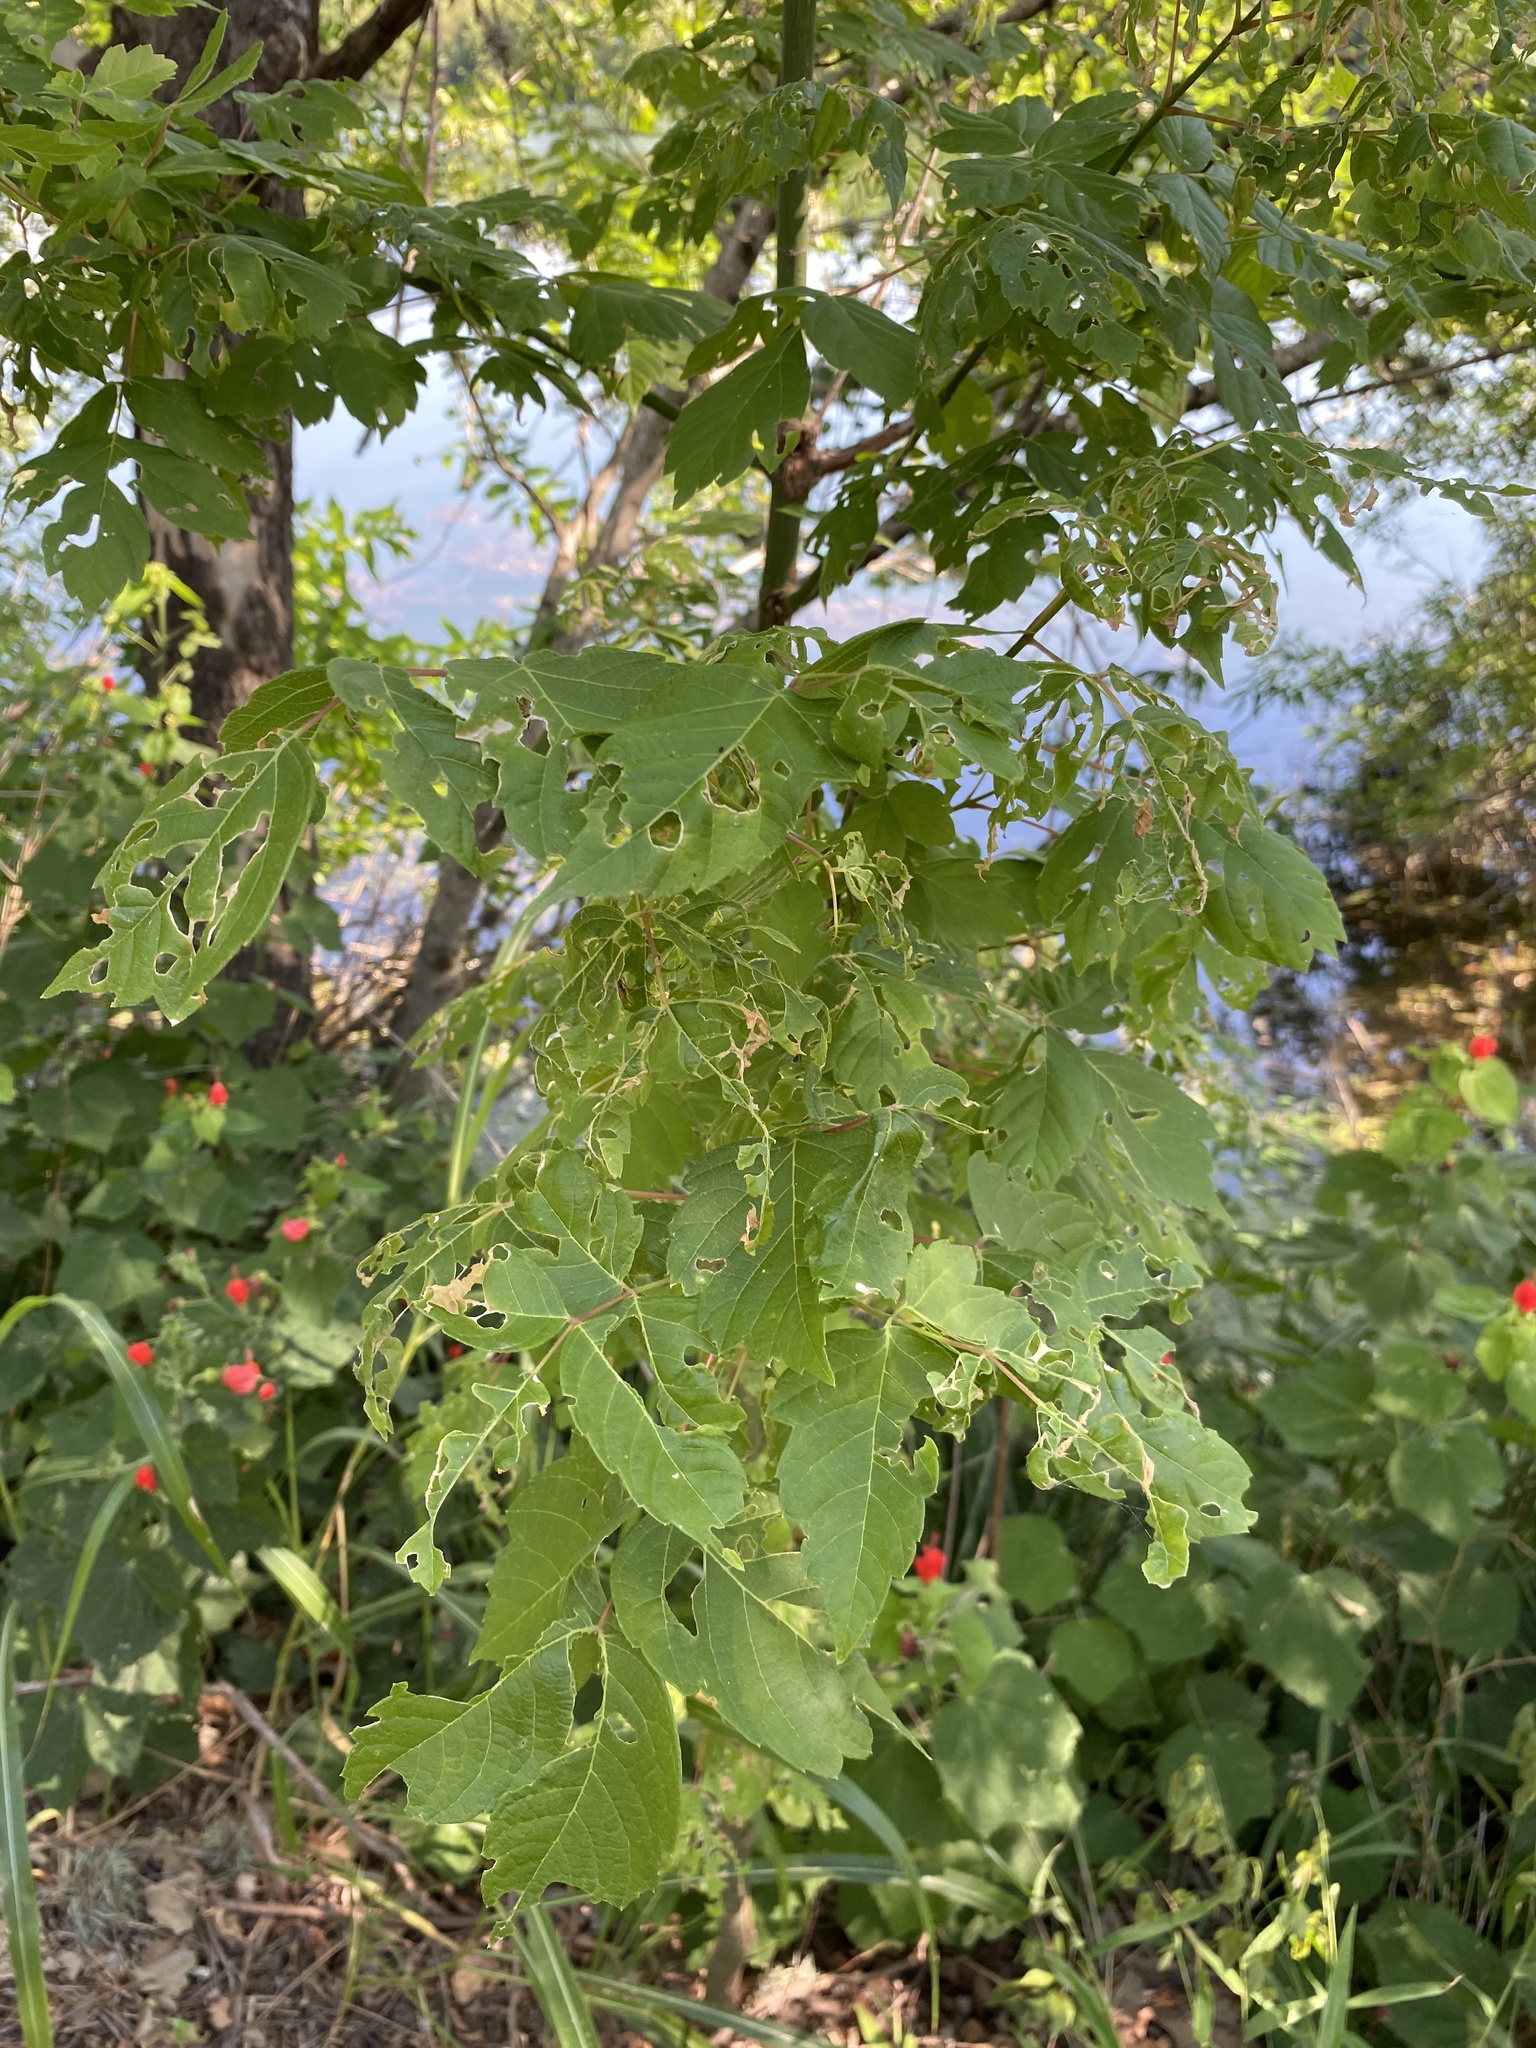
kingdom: Plantae
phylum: Tracheophyta
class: Magnoliopsida
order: Sapindales
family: Sapindaceae
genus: Acer
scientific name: Acer negundo
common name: Ashleaf maple
